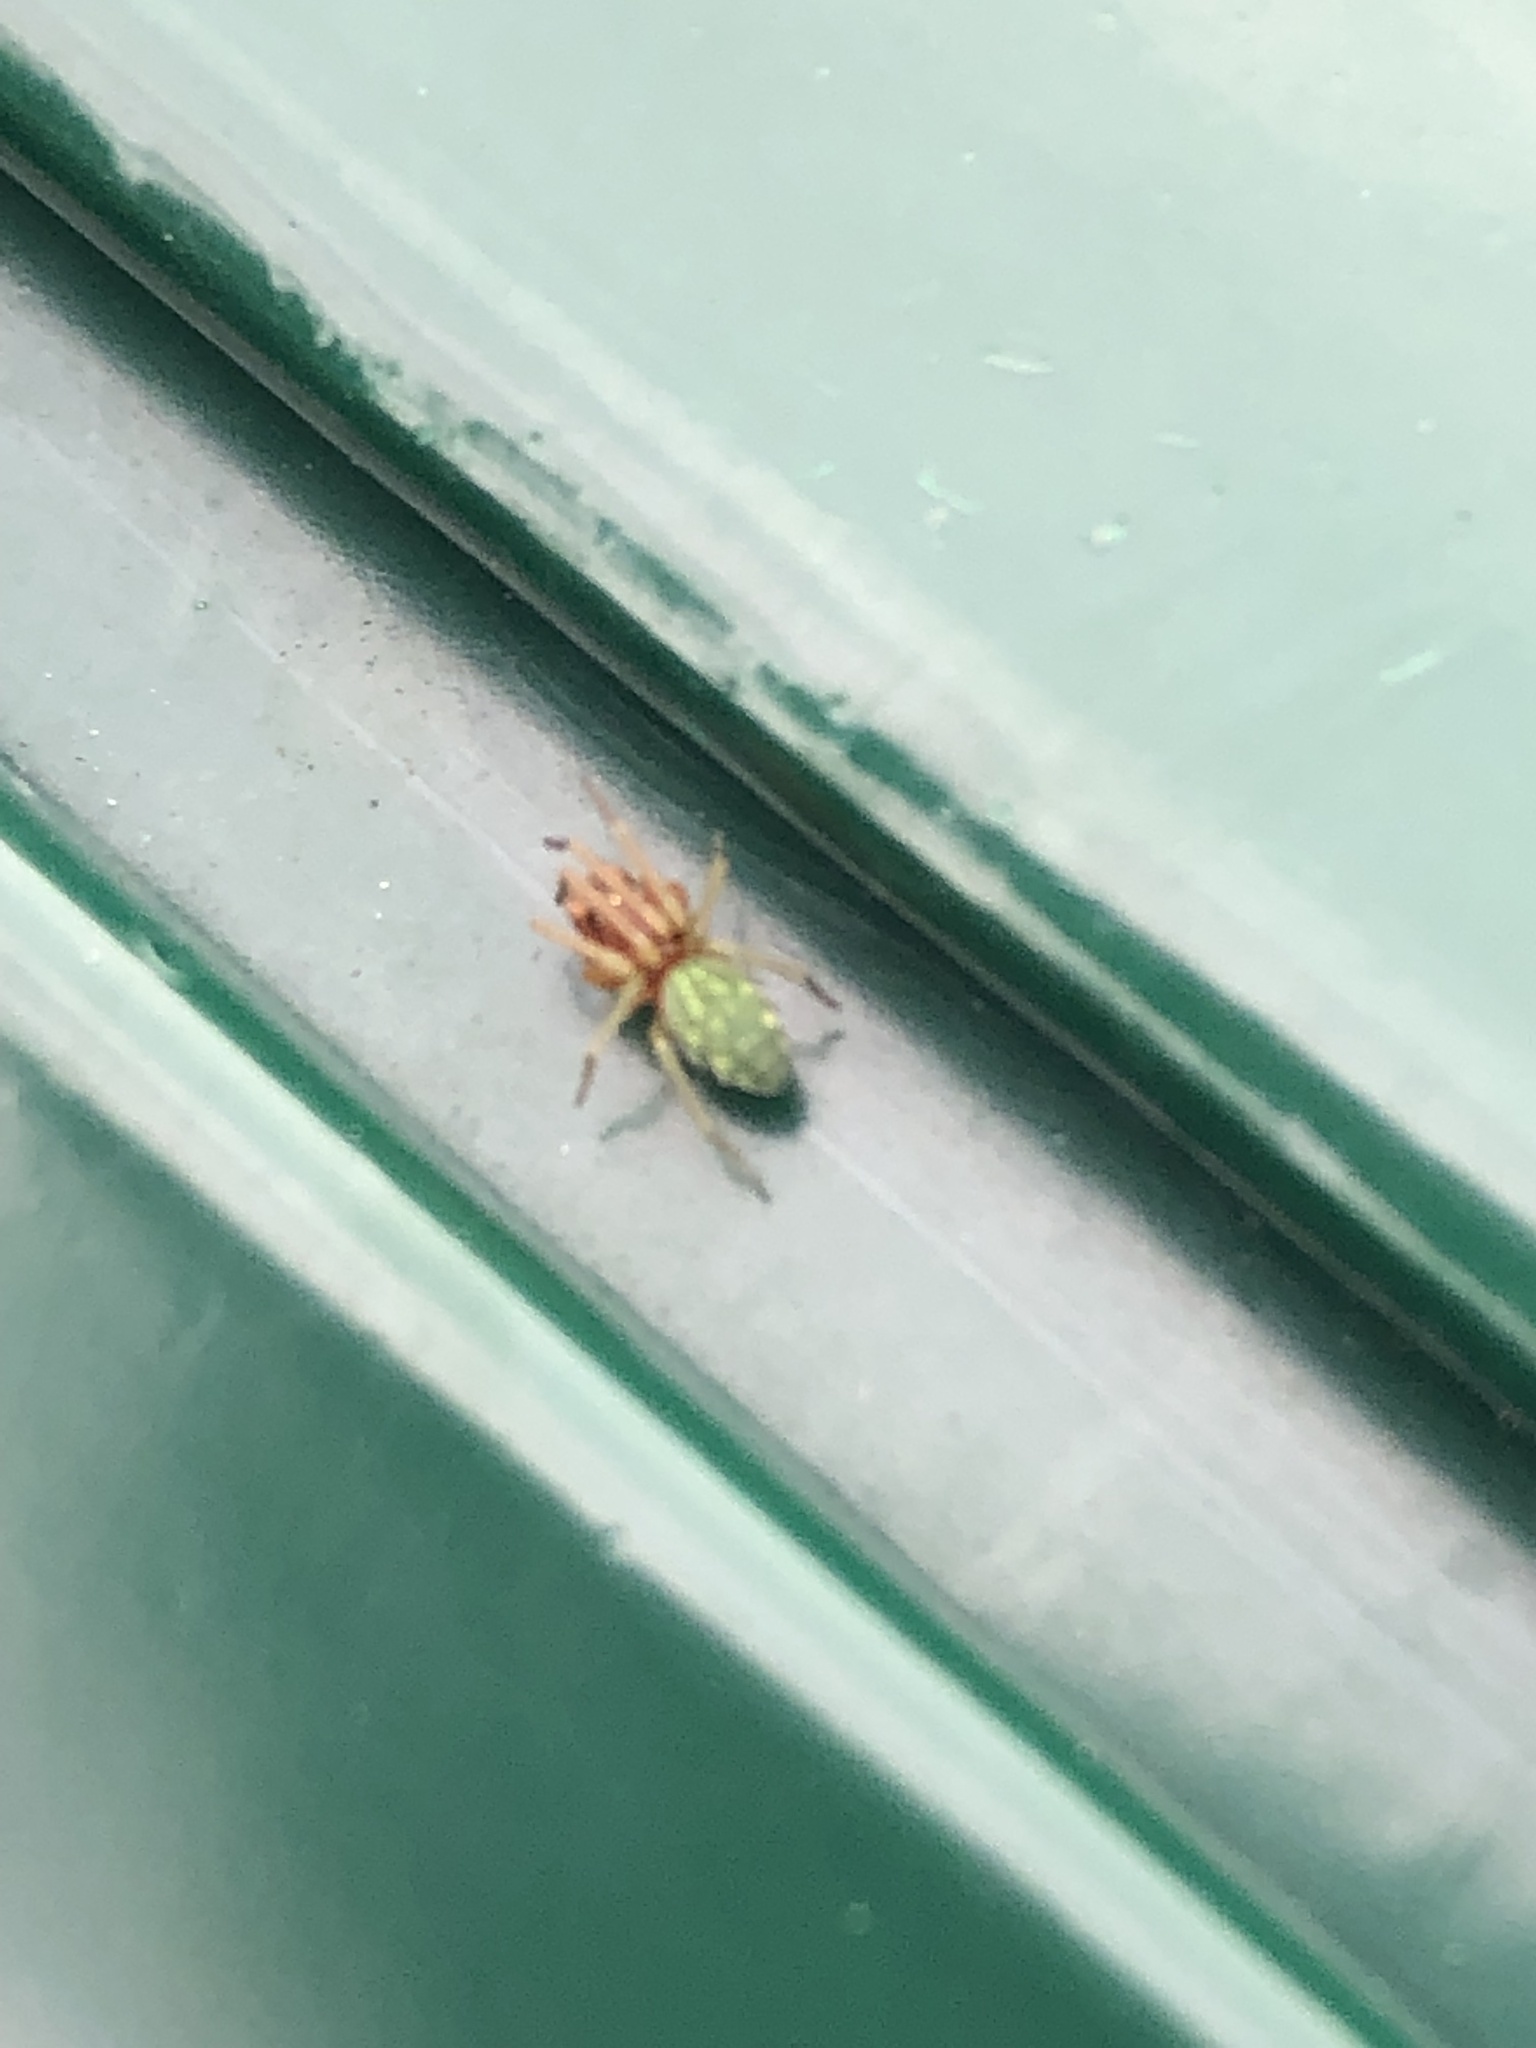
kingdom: Animalia
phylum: Arthropoda
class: Arachnida
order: Araneae
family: Dictynidae
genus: Nigma
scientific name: Nigma walckenaeri
